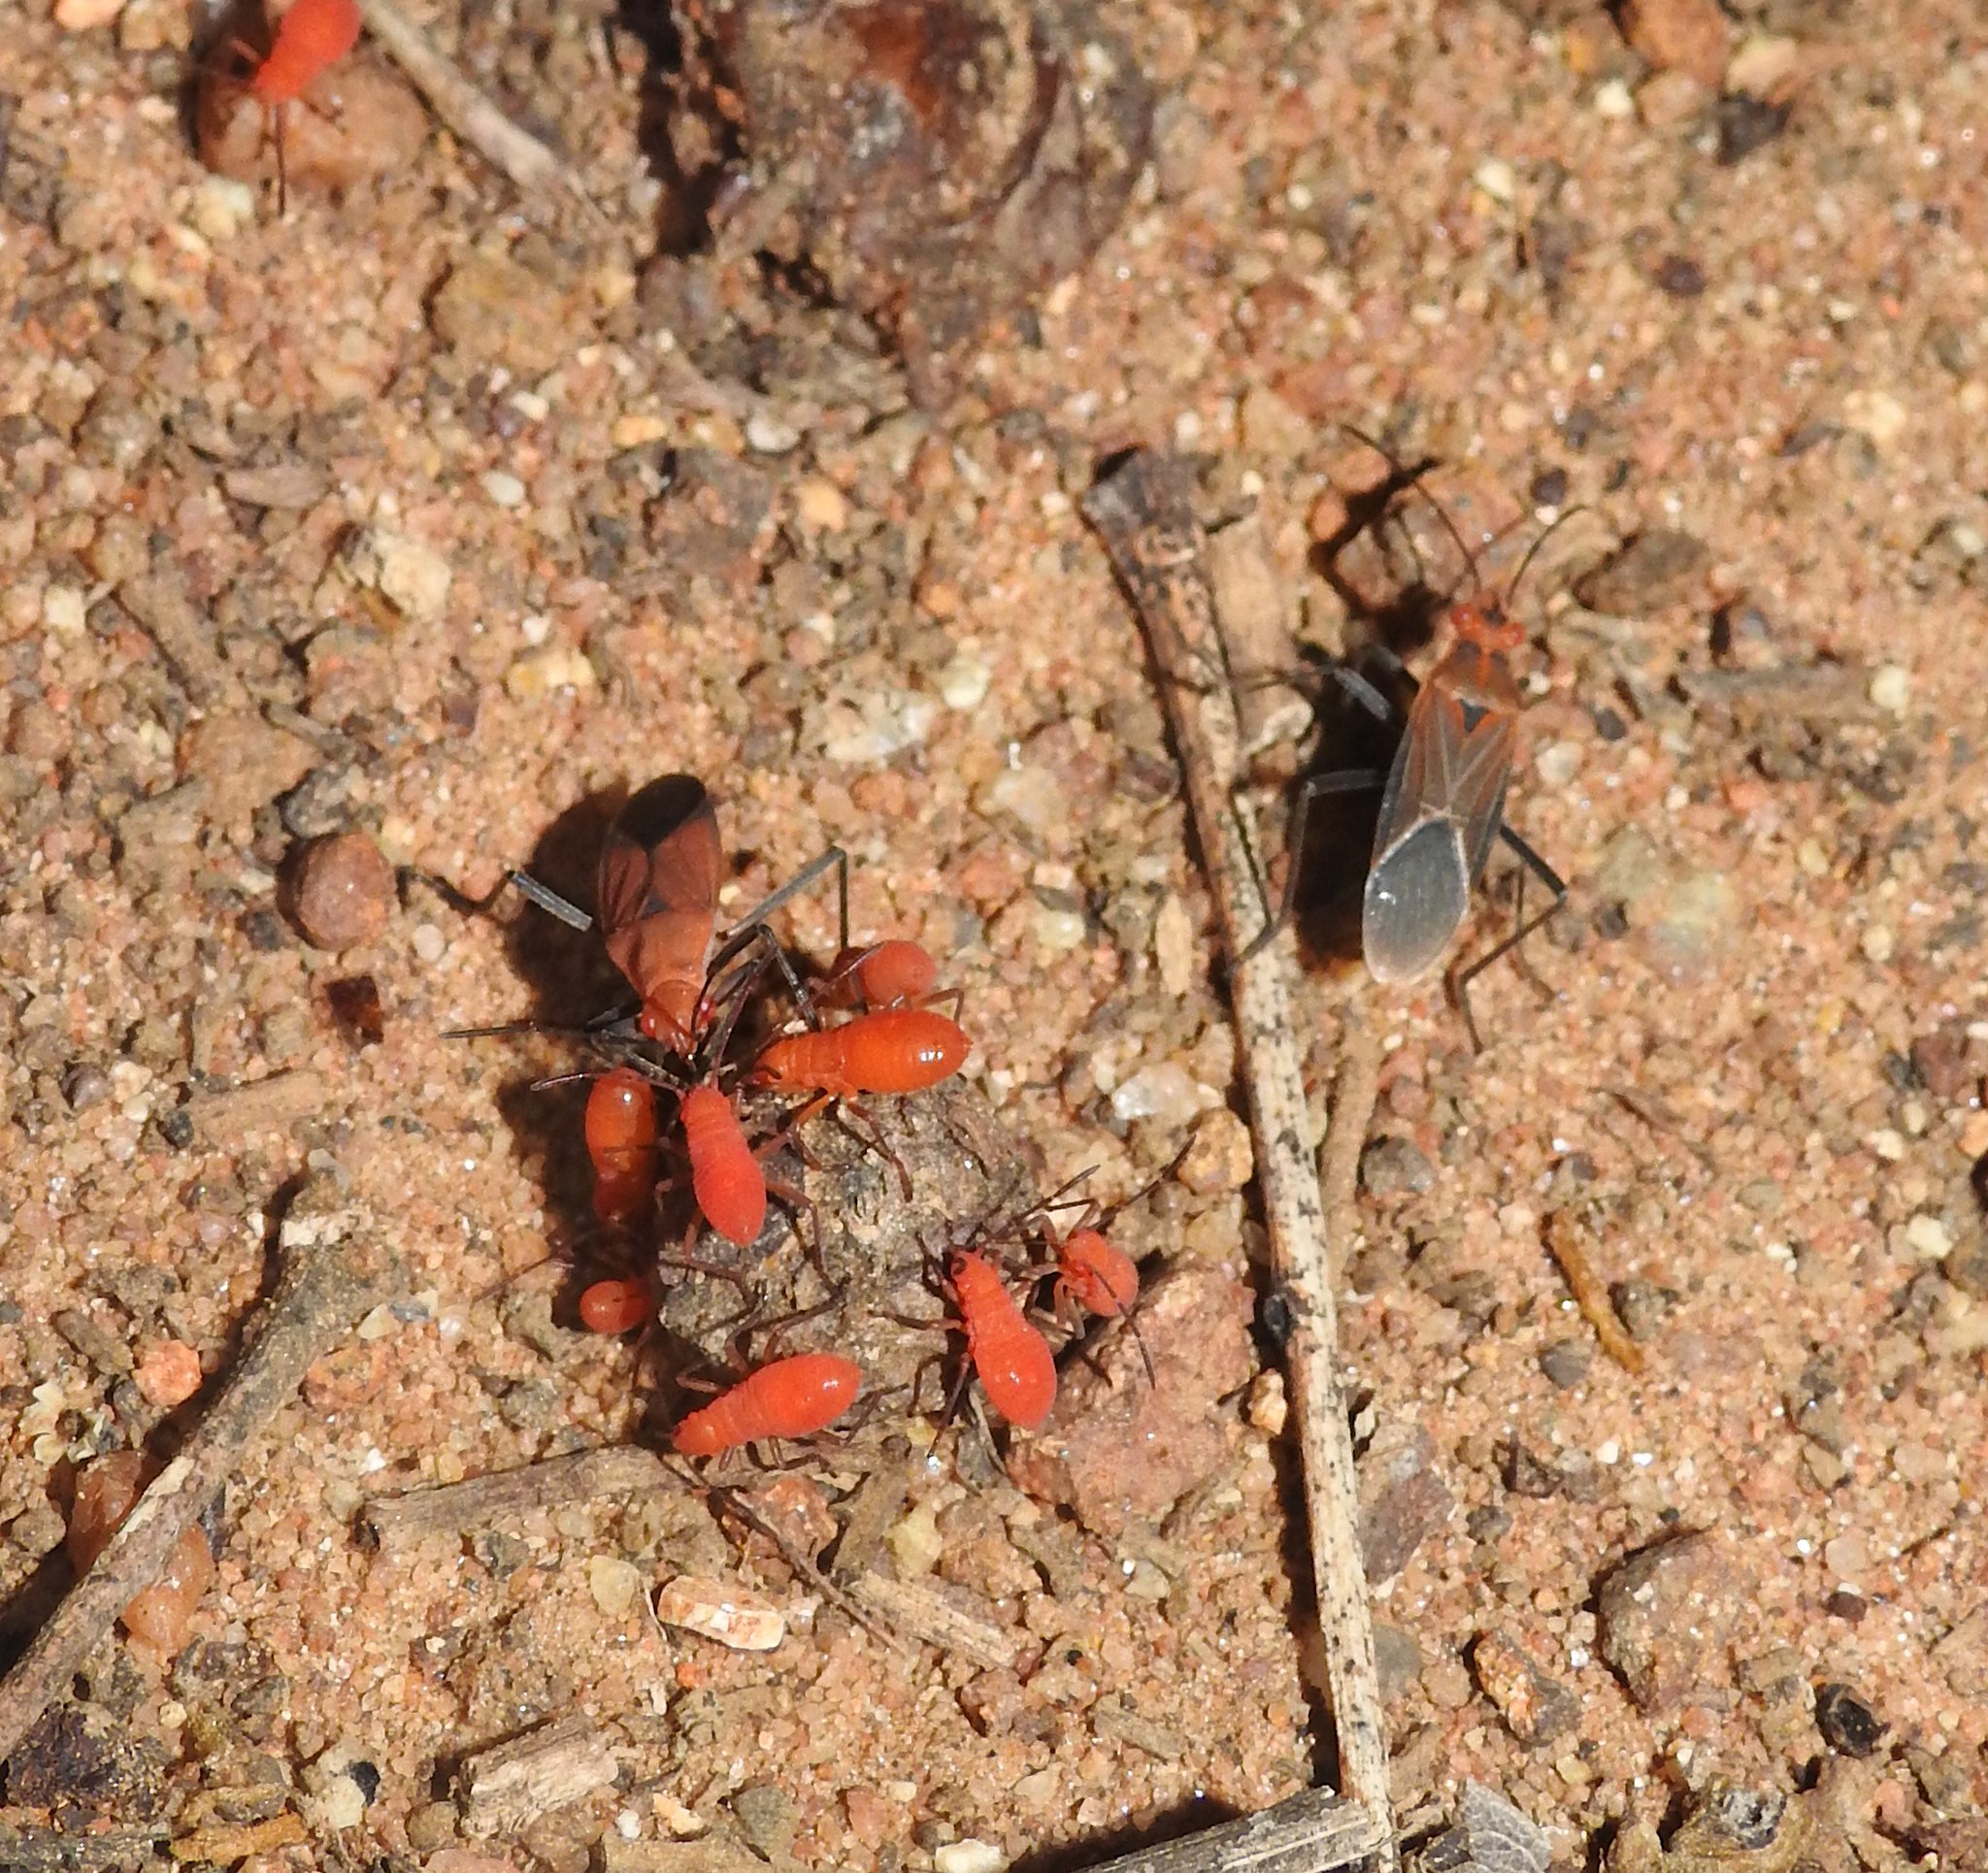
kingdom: Animalia
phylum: Arthropoda
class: Insecta
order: Hemiptera
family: Rhopalidae
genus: Boisea
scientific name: Boisea coimbatorensis
